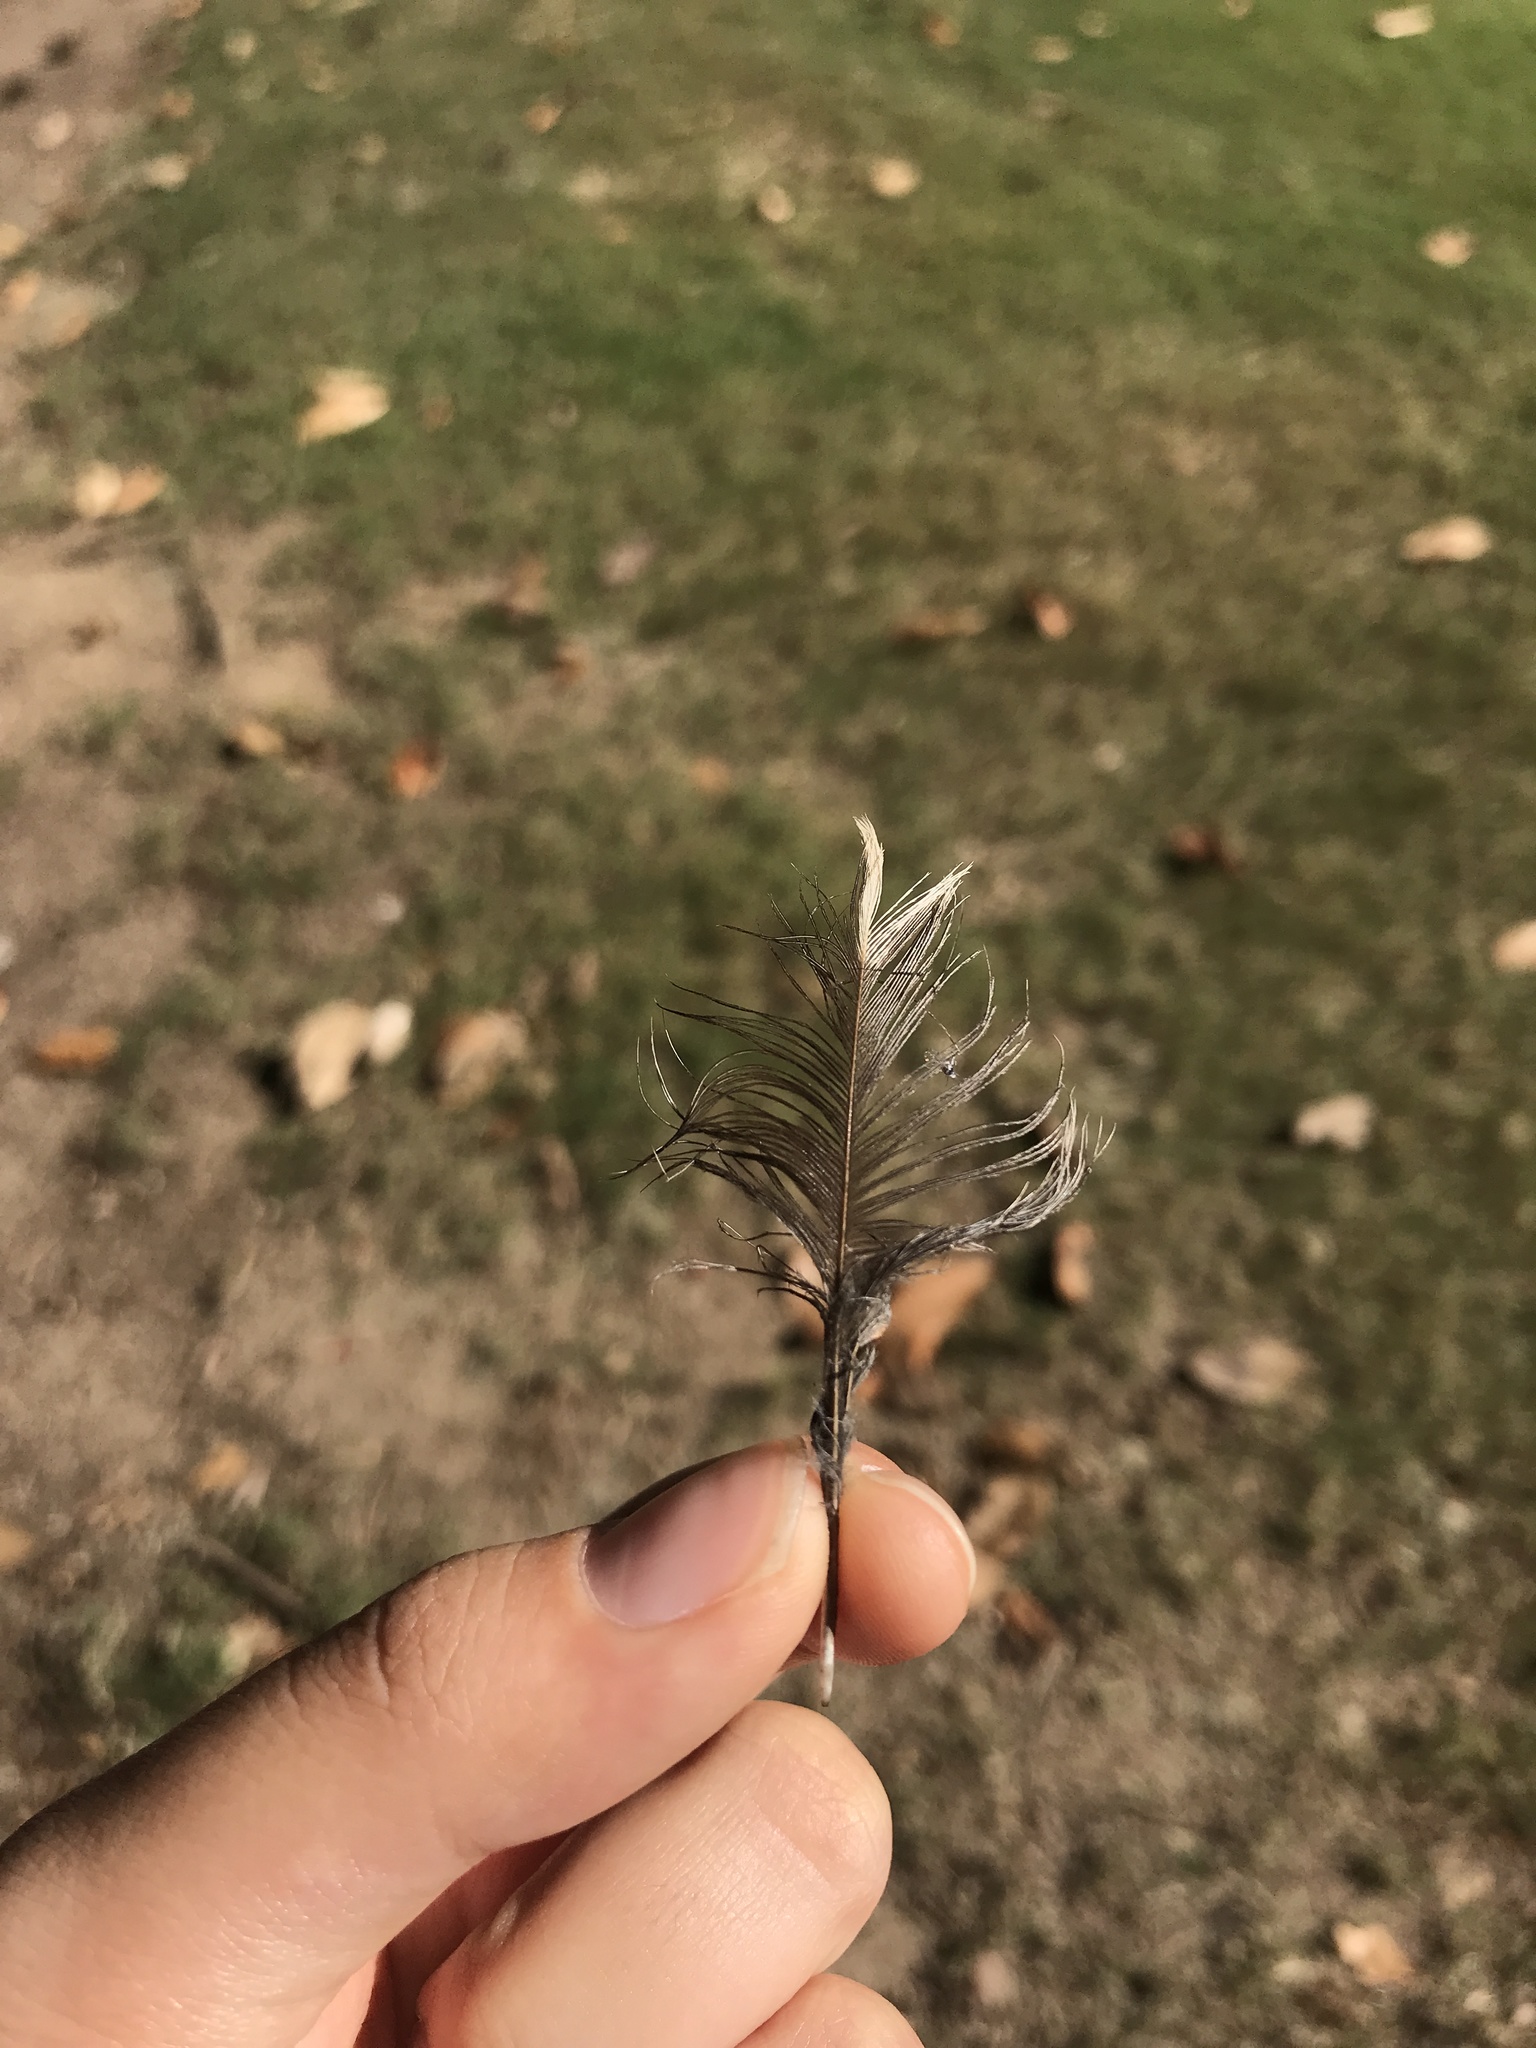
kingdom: Animalia
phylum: Chordata
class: Aves
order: Passeriformes
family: Turdidae
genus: Turdus
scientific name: Turdus migratorius
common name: American robin
